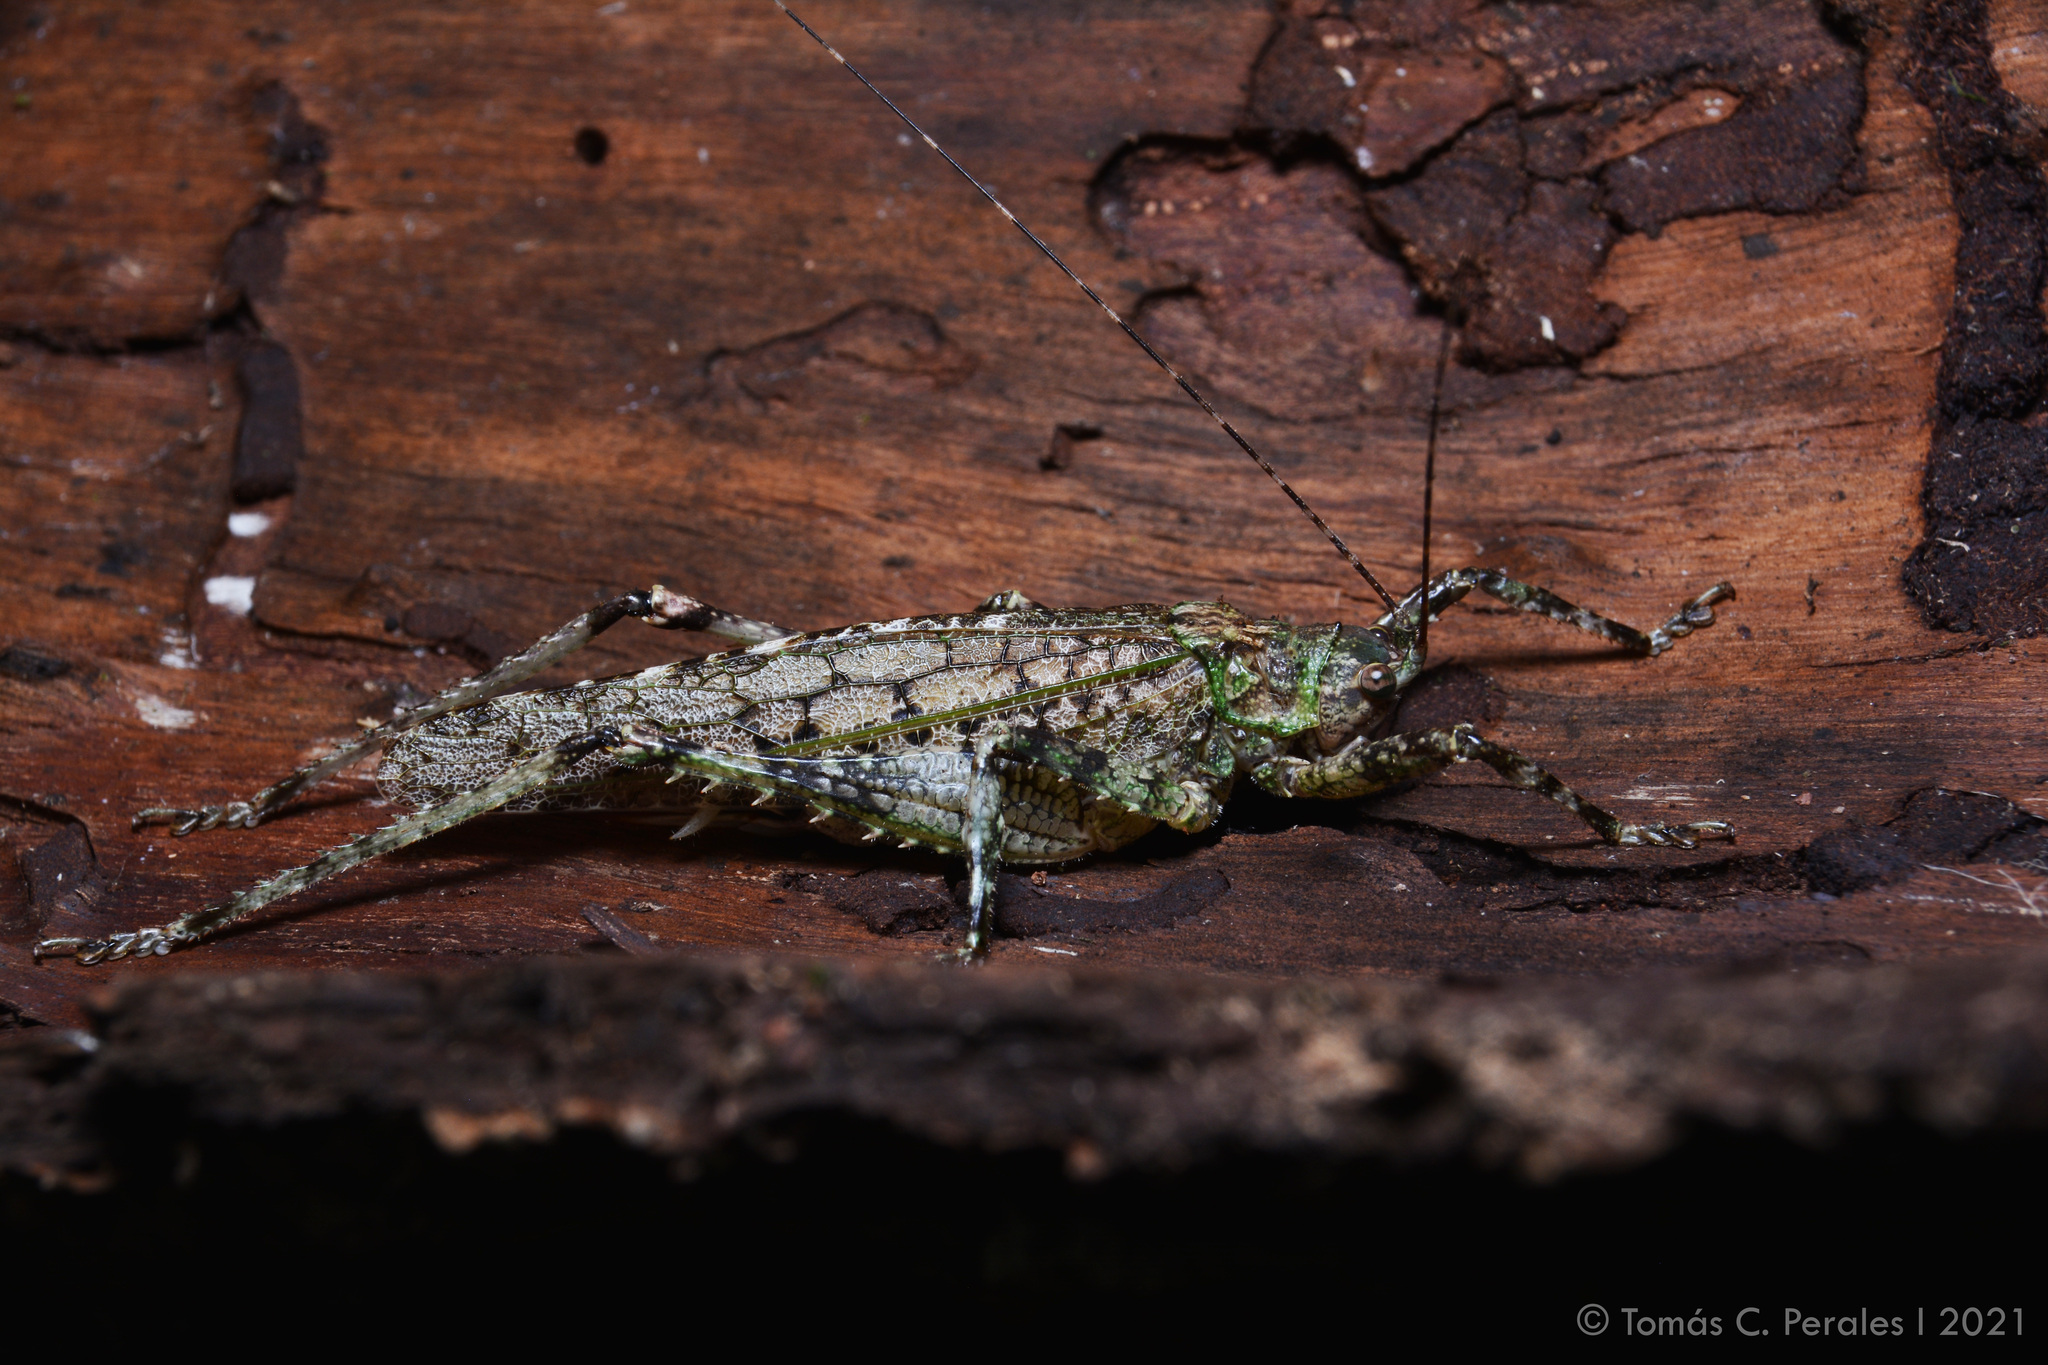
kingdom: Animalia
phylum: Arthropoda
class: Insecta
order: Orthoptera
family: Tettigoniidae
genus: Gongrocnemis
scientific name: Gongrocnemis hilaris
